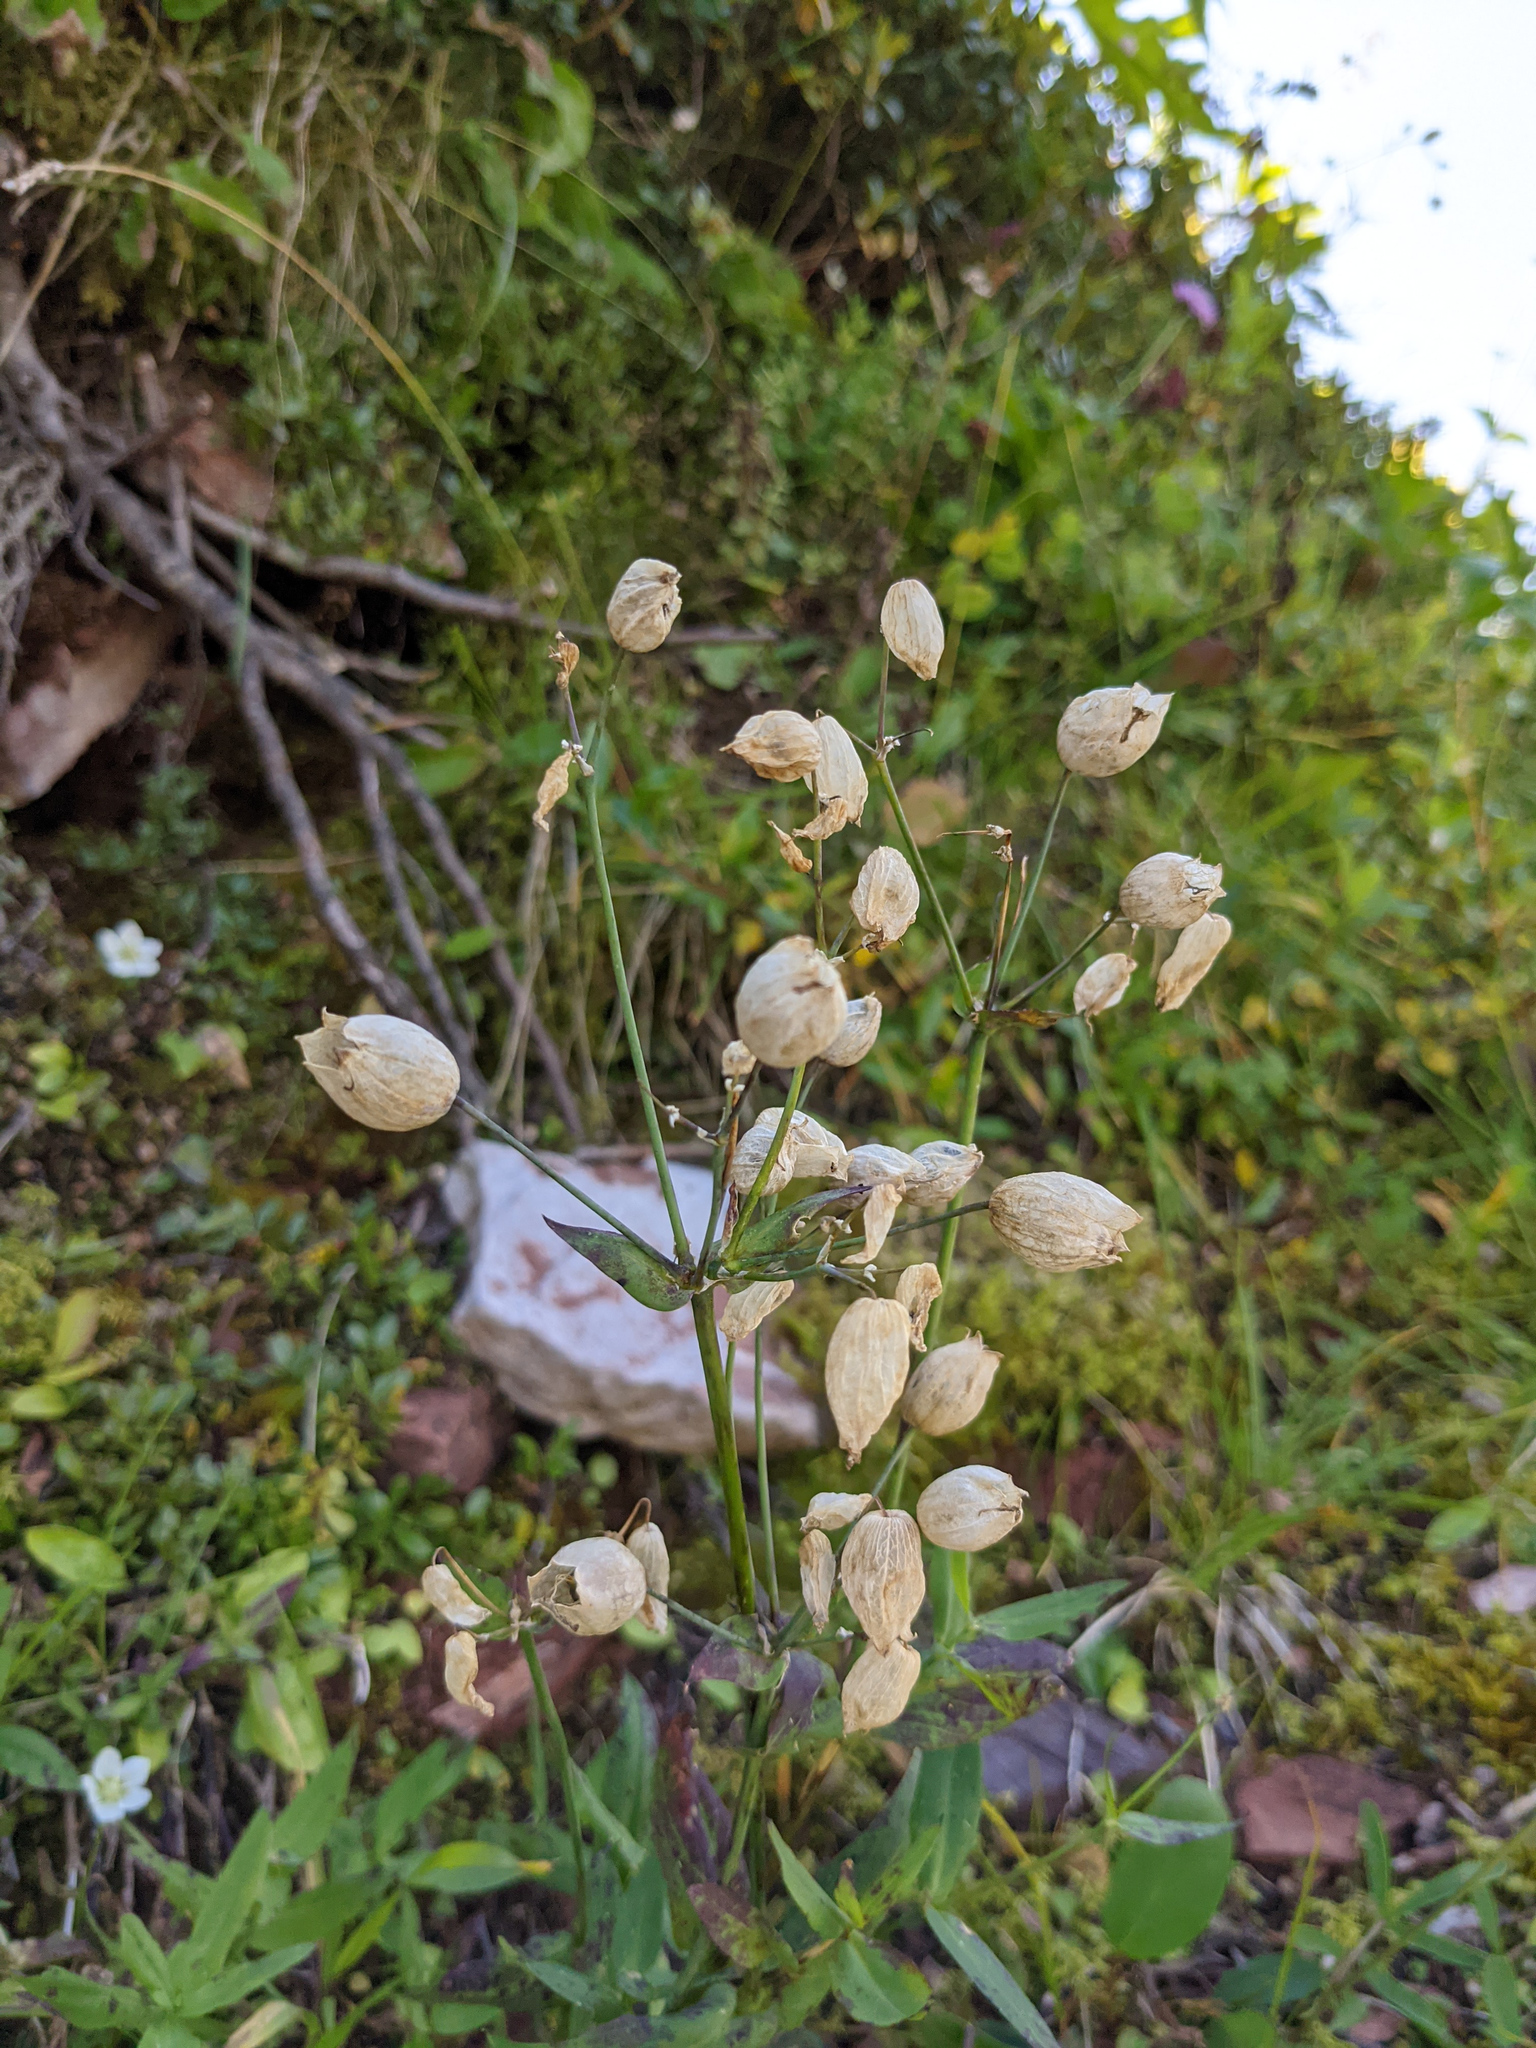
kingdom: Plantae
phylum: Tracheophyta
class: Magnoliopsida
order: Caryophyllales
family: Caryophyllaceae
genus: Silene
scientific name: Silene vulgaris
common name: Bladder campion
